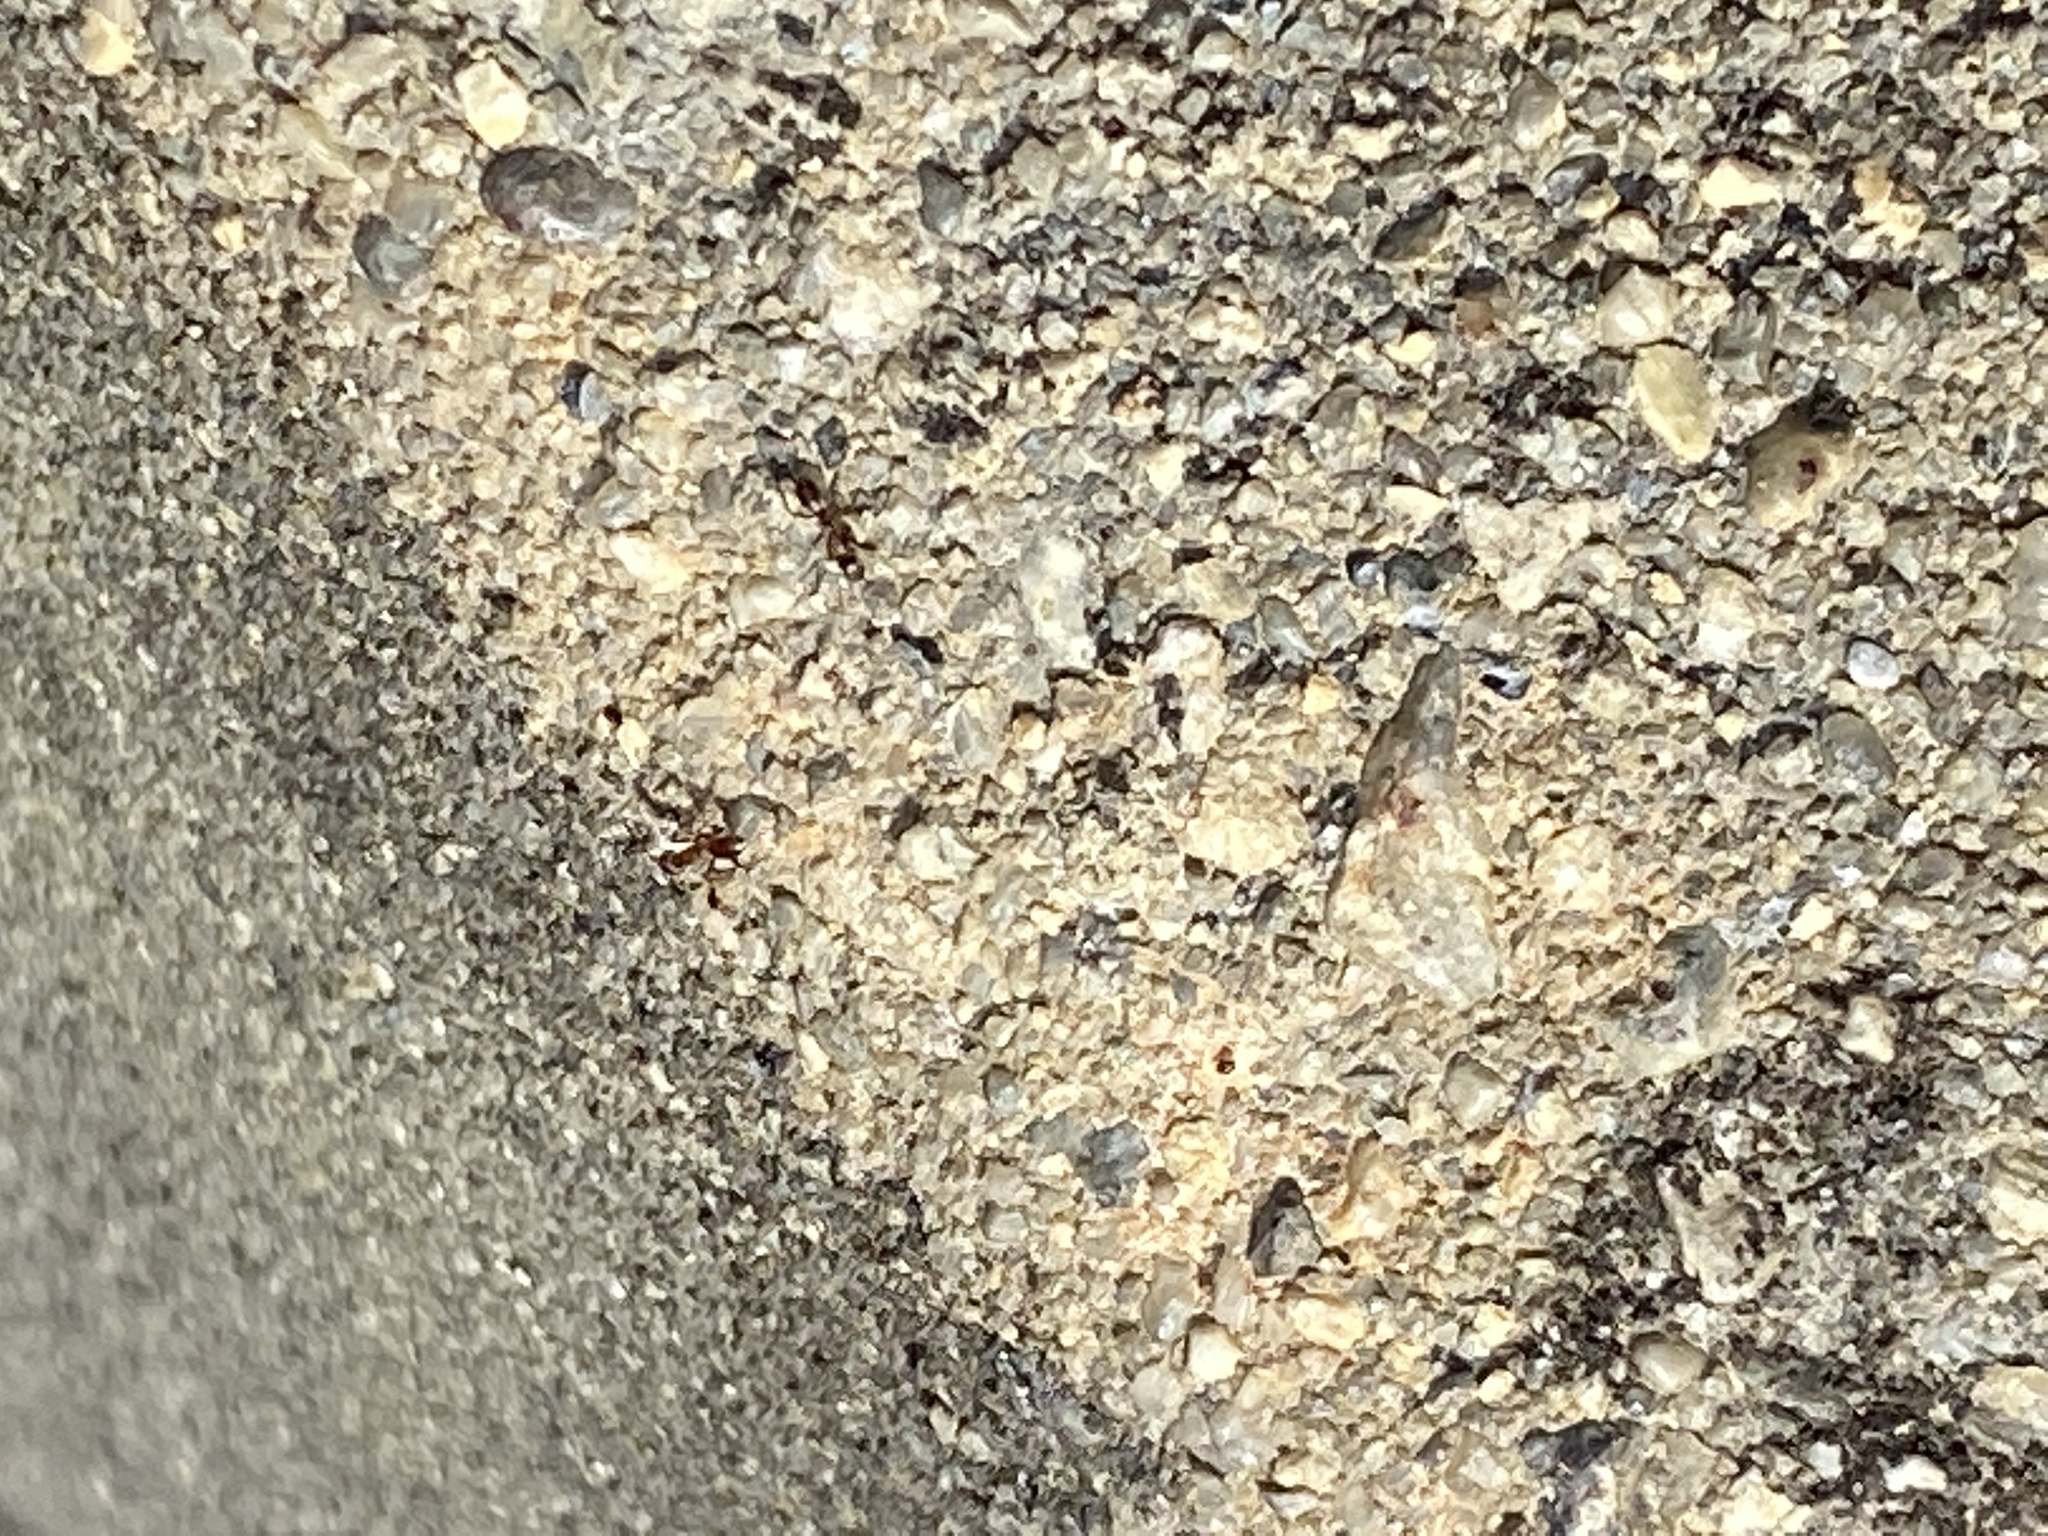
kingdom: Animalia
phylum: Arthropoda
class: Insecta
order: Hymenoptera
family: Formicidae
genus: Linepithema
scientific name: Linepithema humile
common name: Argentine ant
